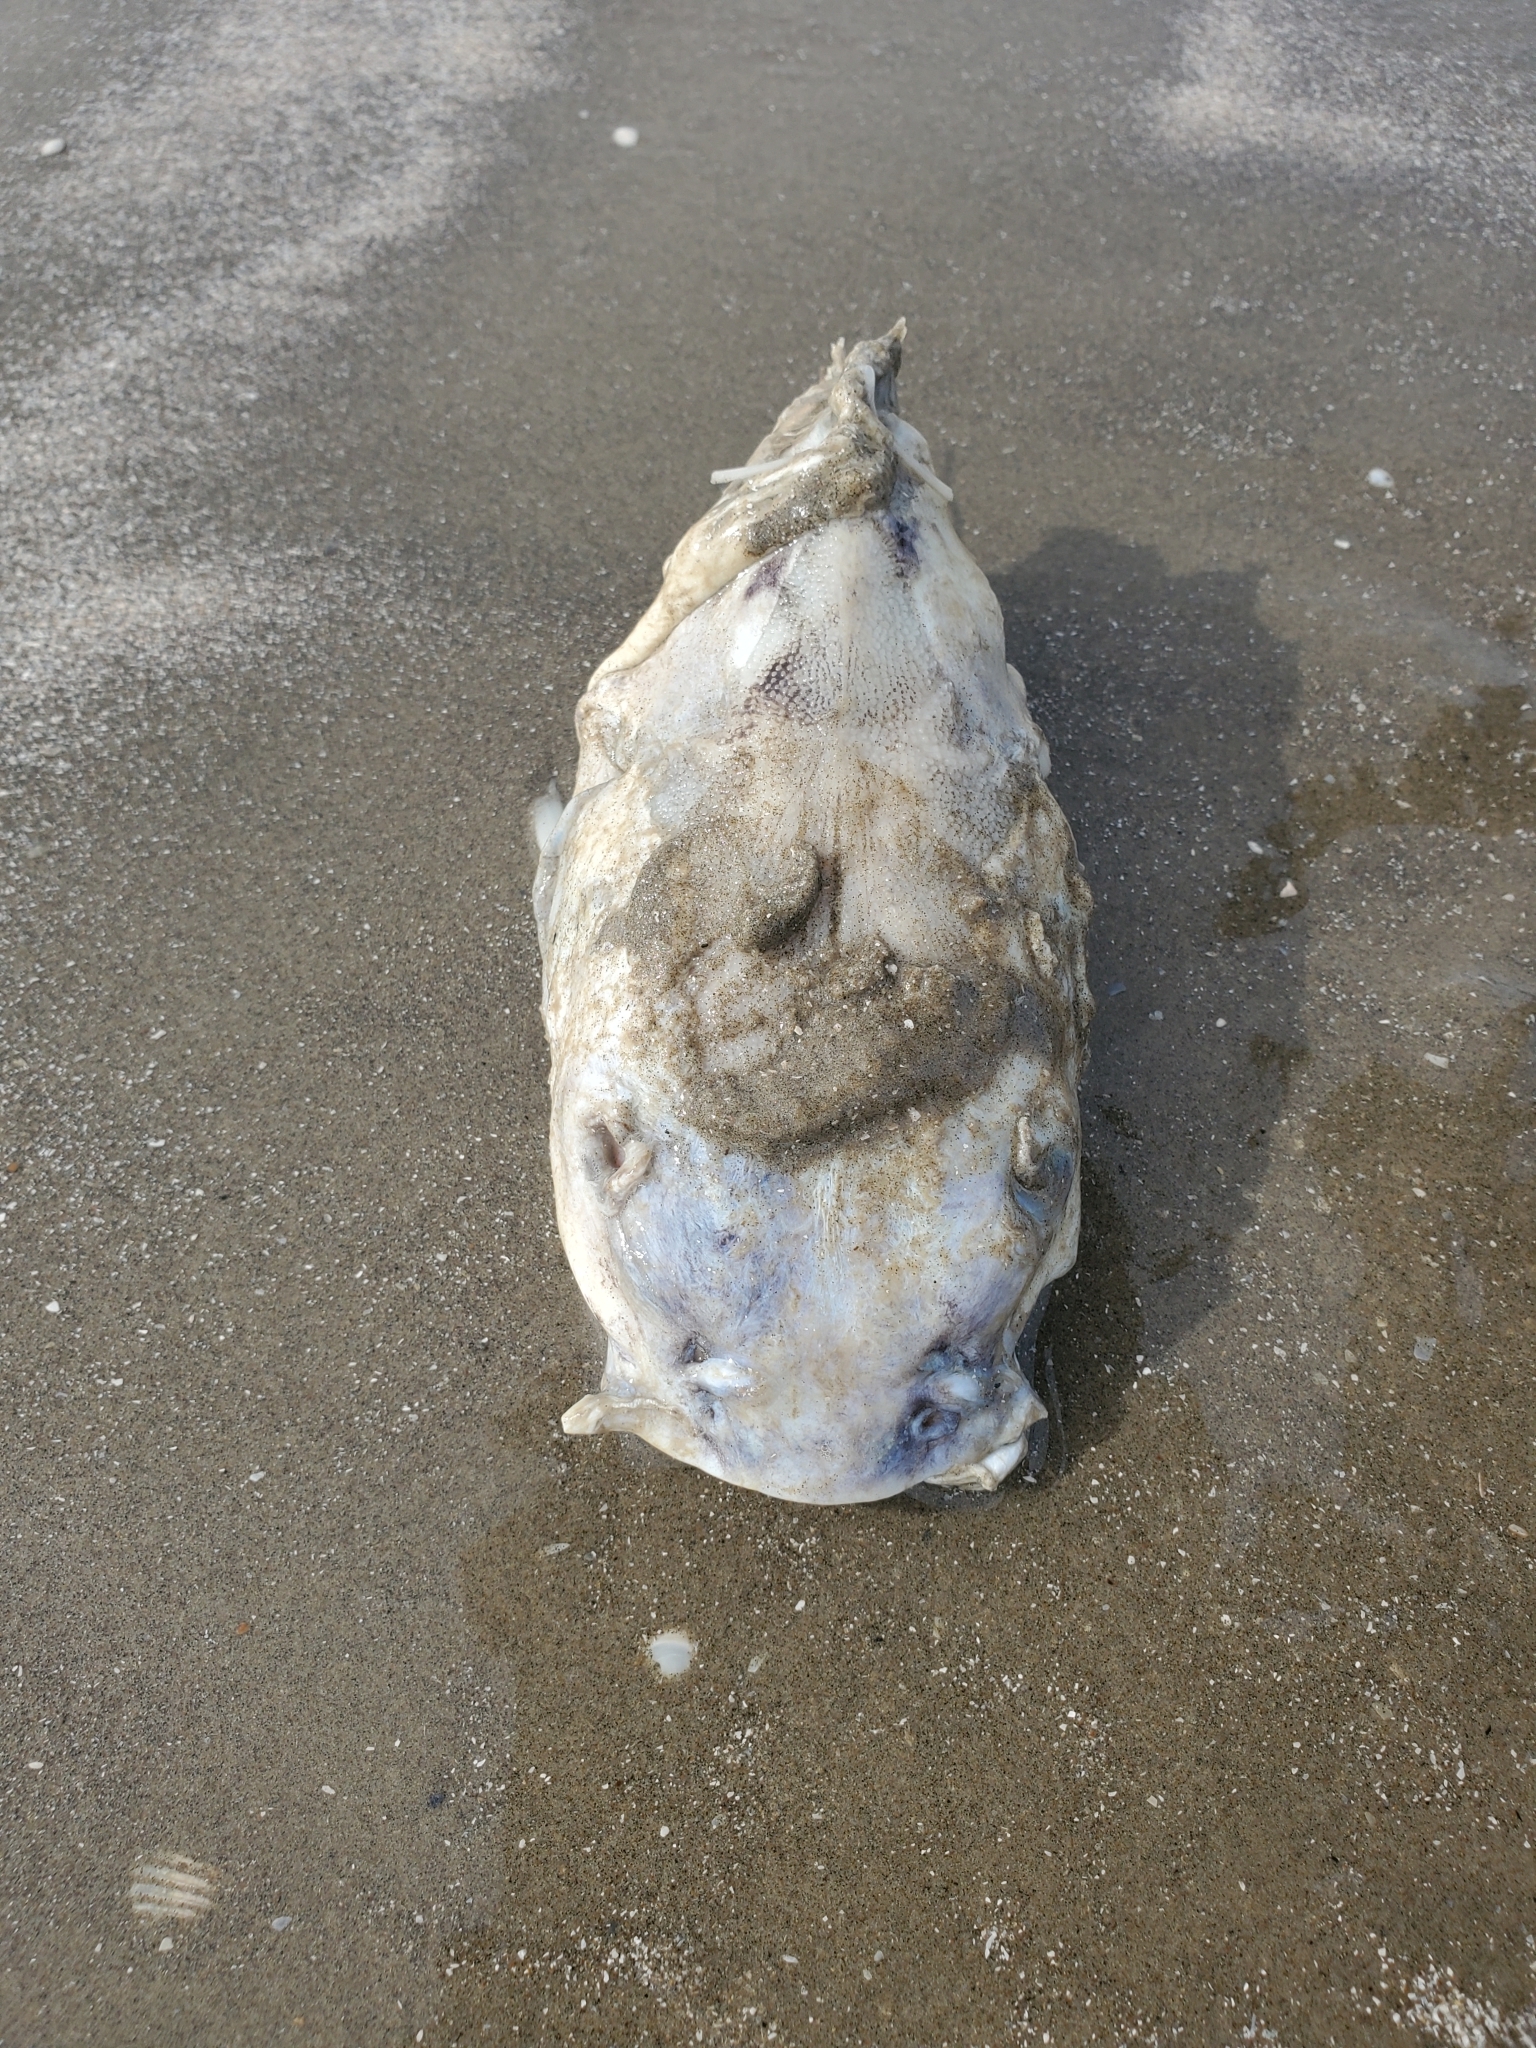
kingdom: Animalia
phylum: Chordata
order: Siluriformes
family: Ariidae
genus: Ariopsis
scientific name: Ariopsis felis
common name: Hardhead catfish
